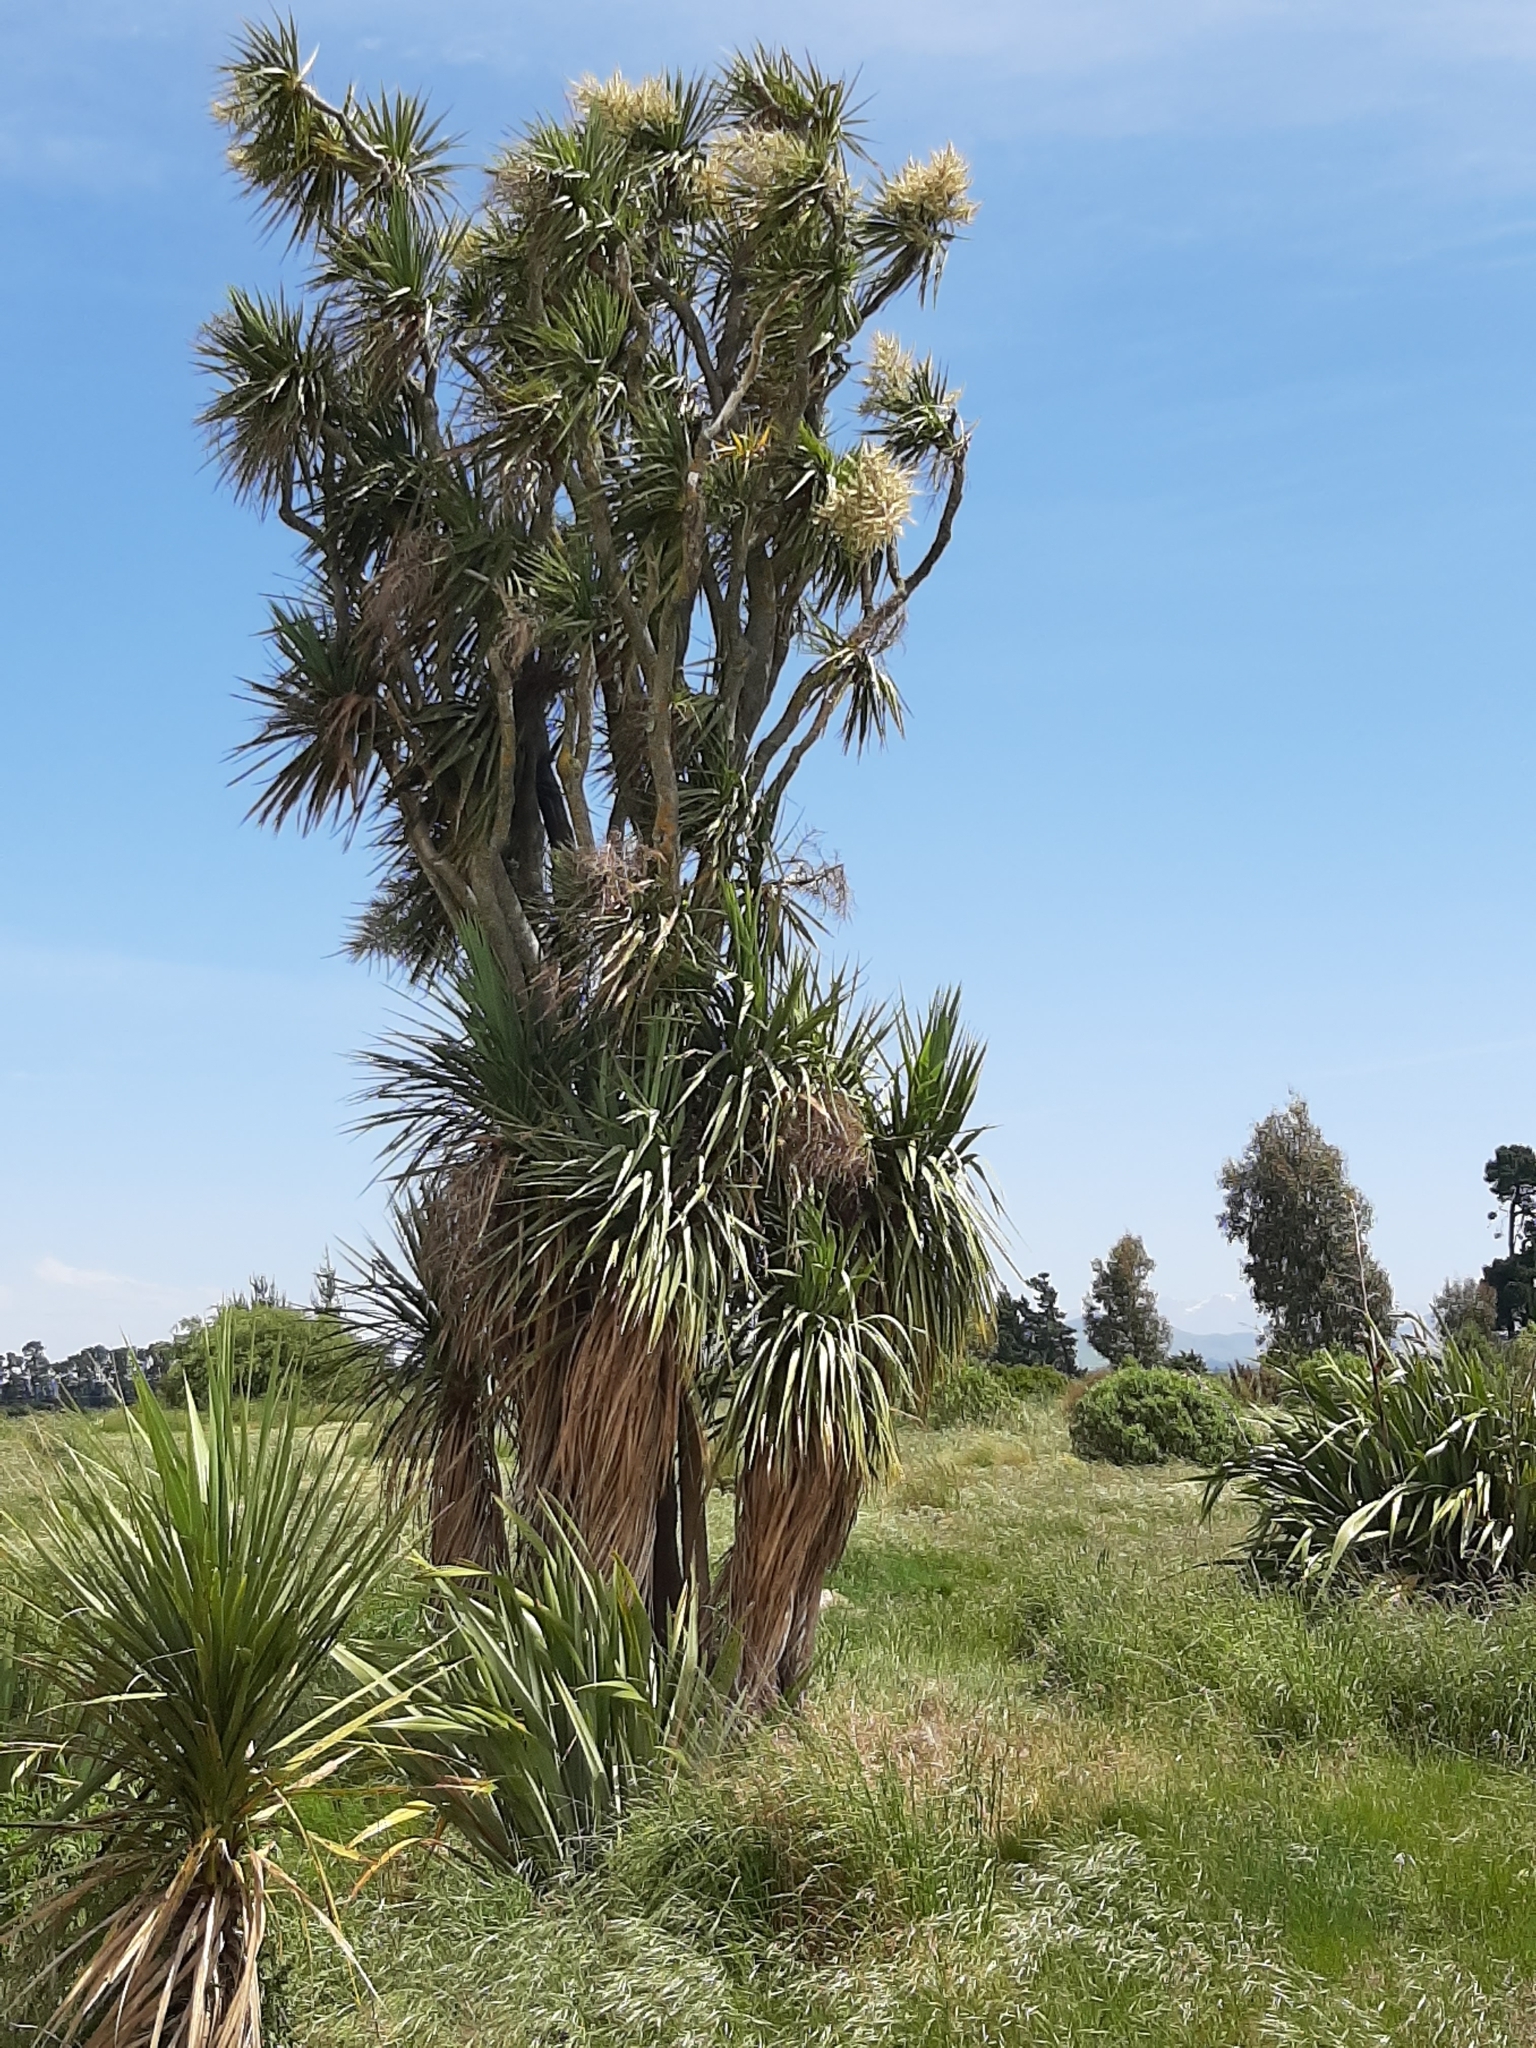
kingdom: Plantae
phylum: Tracheophyta
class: Liliopsida
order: Asparagales
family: Asparagaceae
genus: Cordyline
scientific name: Cordyline australis
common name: Cabbage-palm
